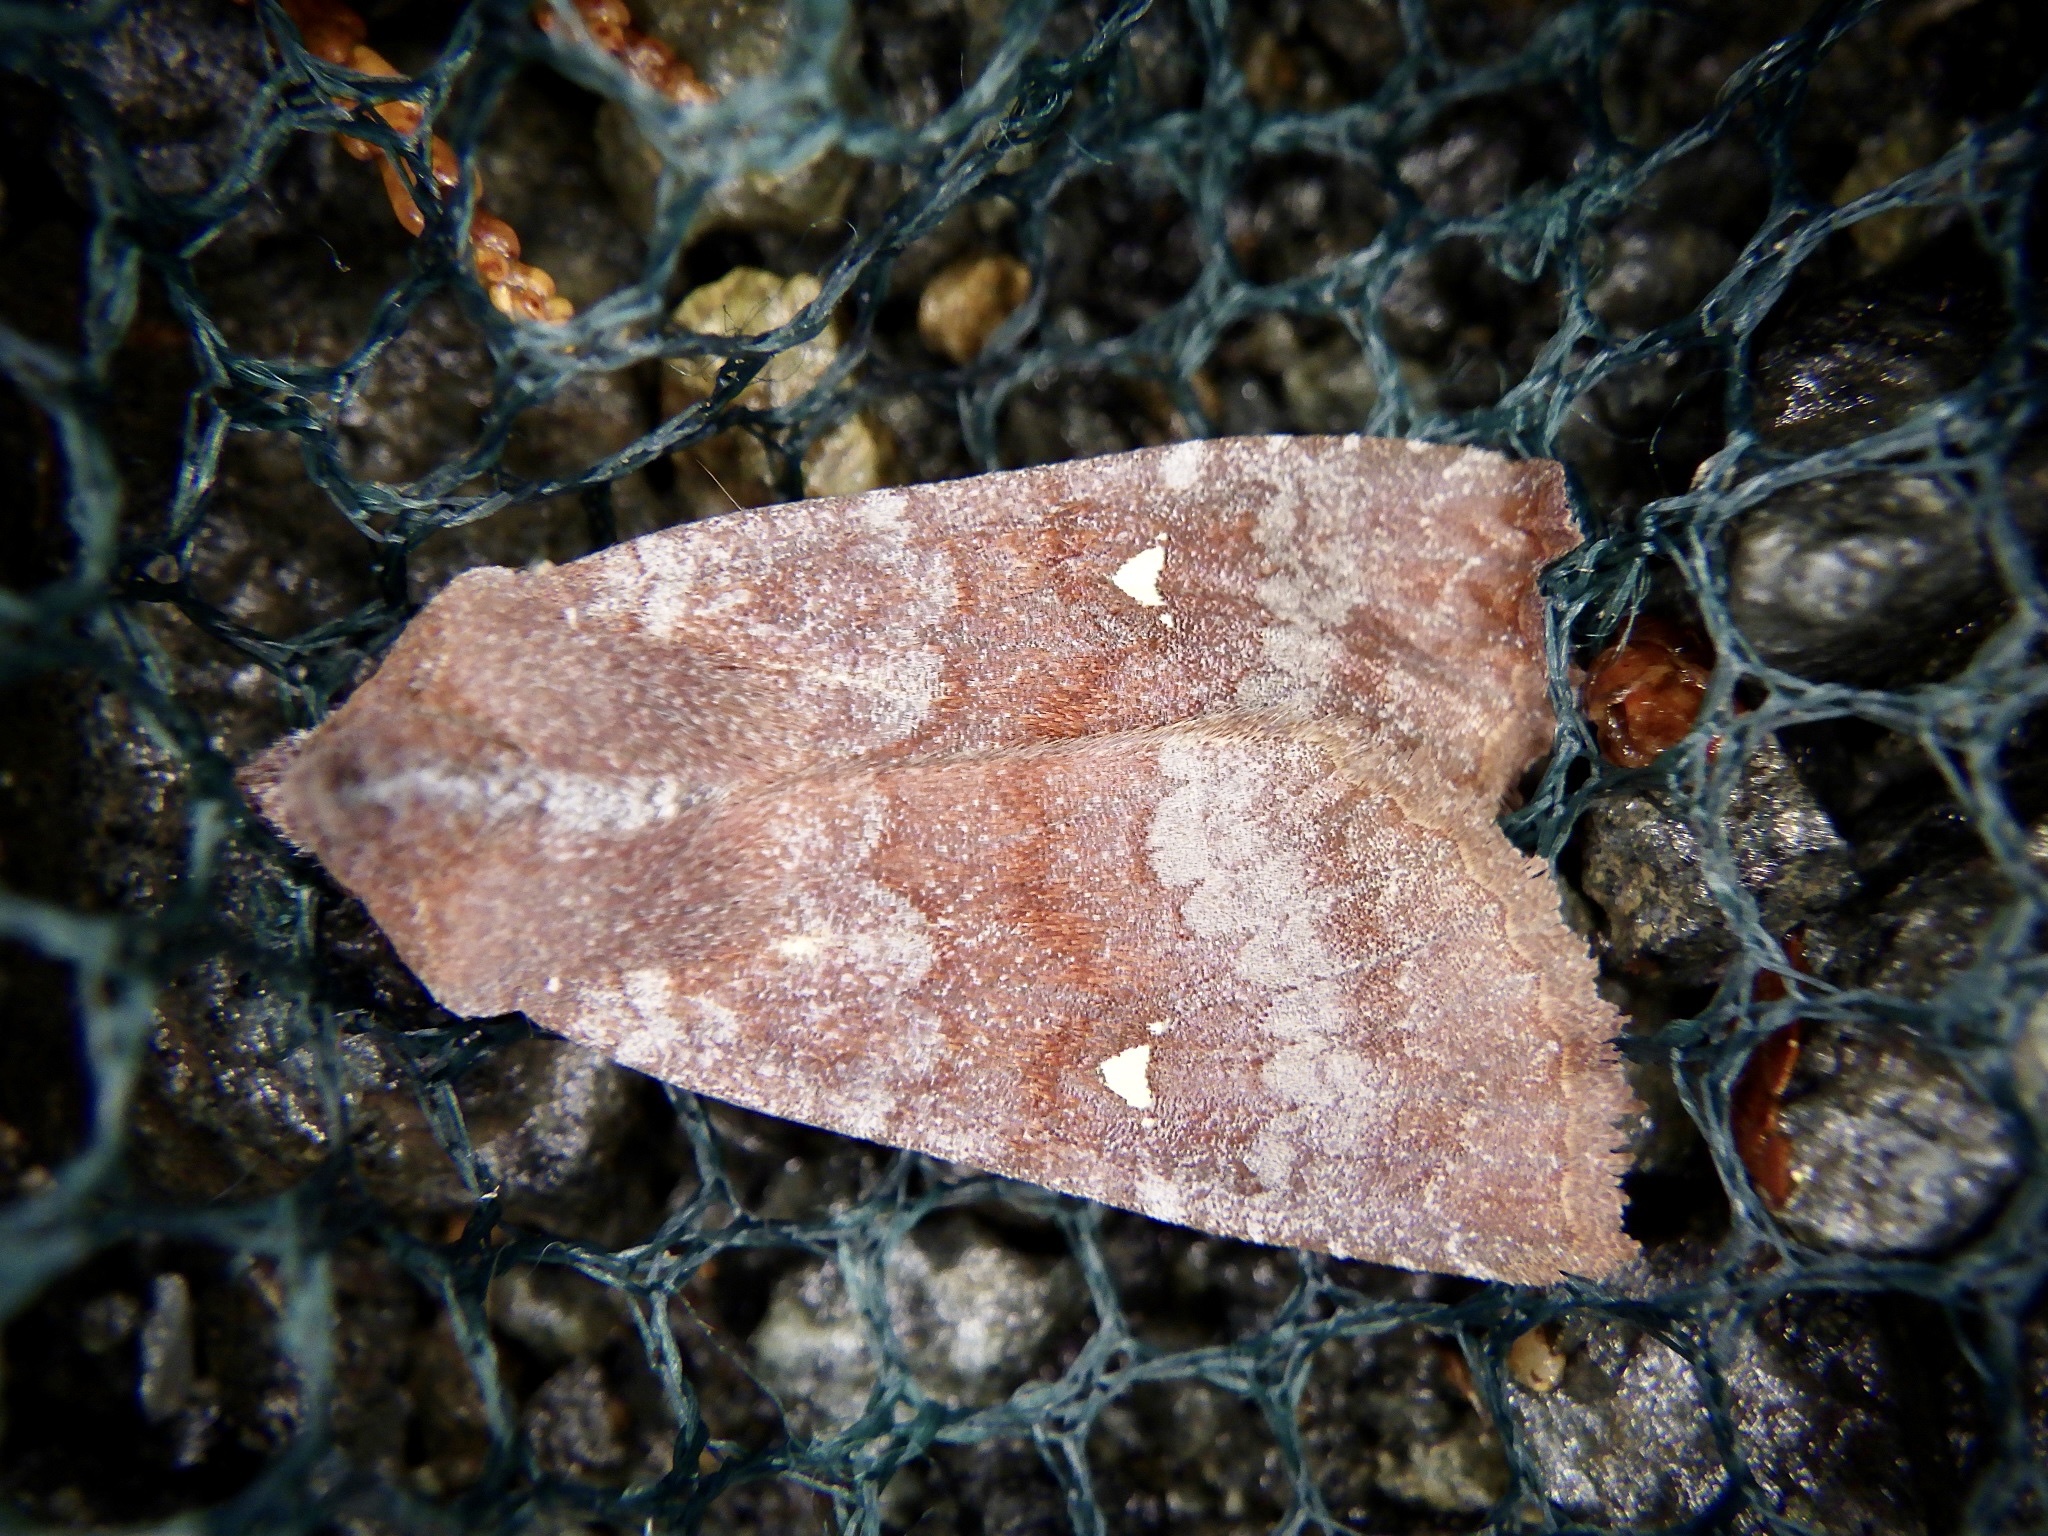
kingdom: Animalia
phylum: Arthropoda
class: Insecta
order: Lepidoptera
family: Noctuidae
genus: Eupsilia
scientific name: Eupsilia unipuncta
